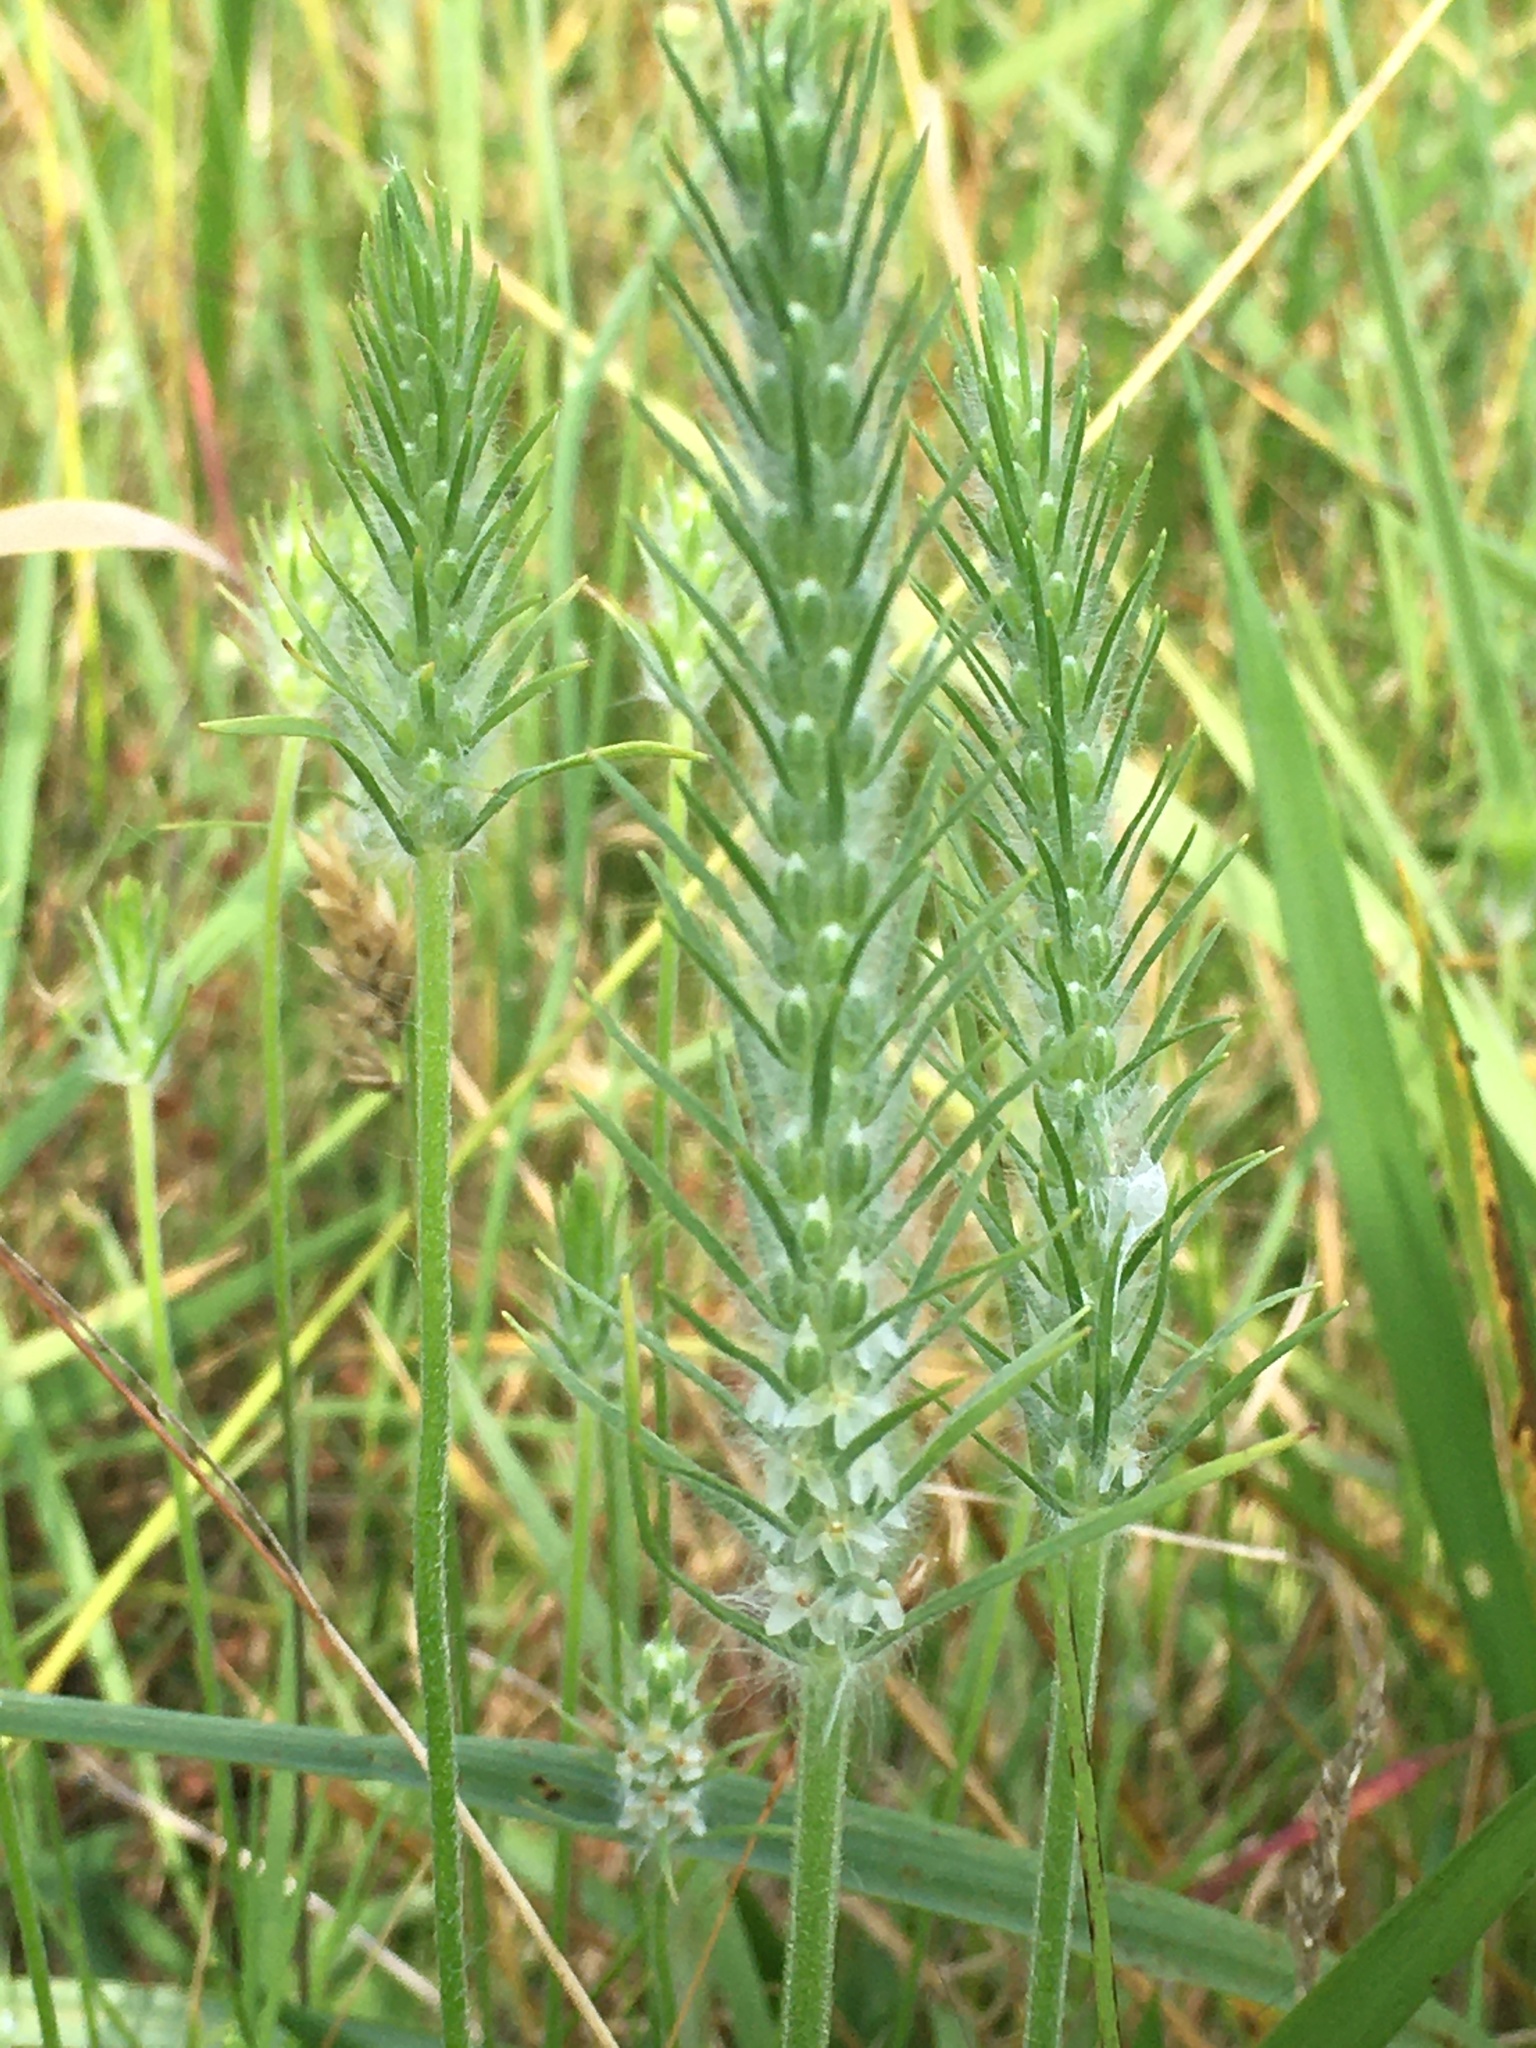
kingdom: Plantae
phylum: Tracheophyta
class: Magnoliopsida
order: Lamiales
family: Plantaginaceae
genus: Plantago
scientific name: Plantago aristata
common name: Bracted plantain
